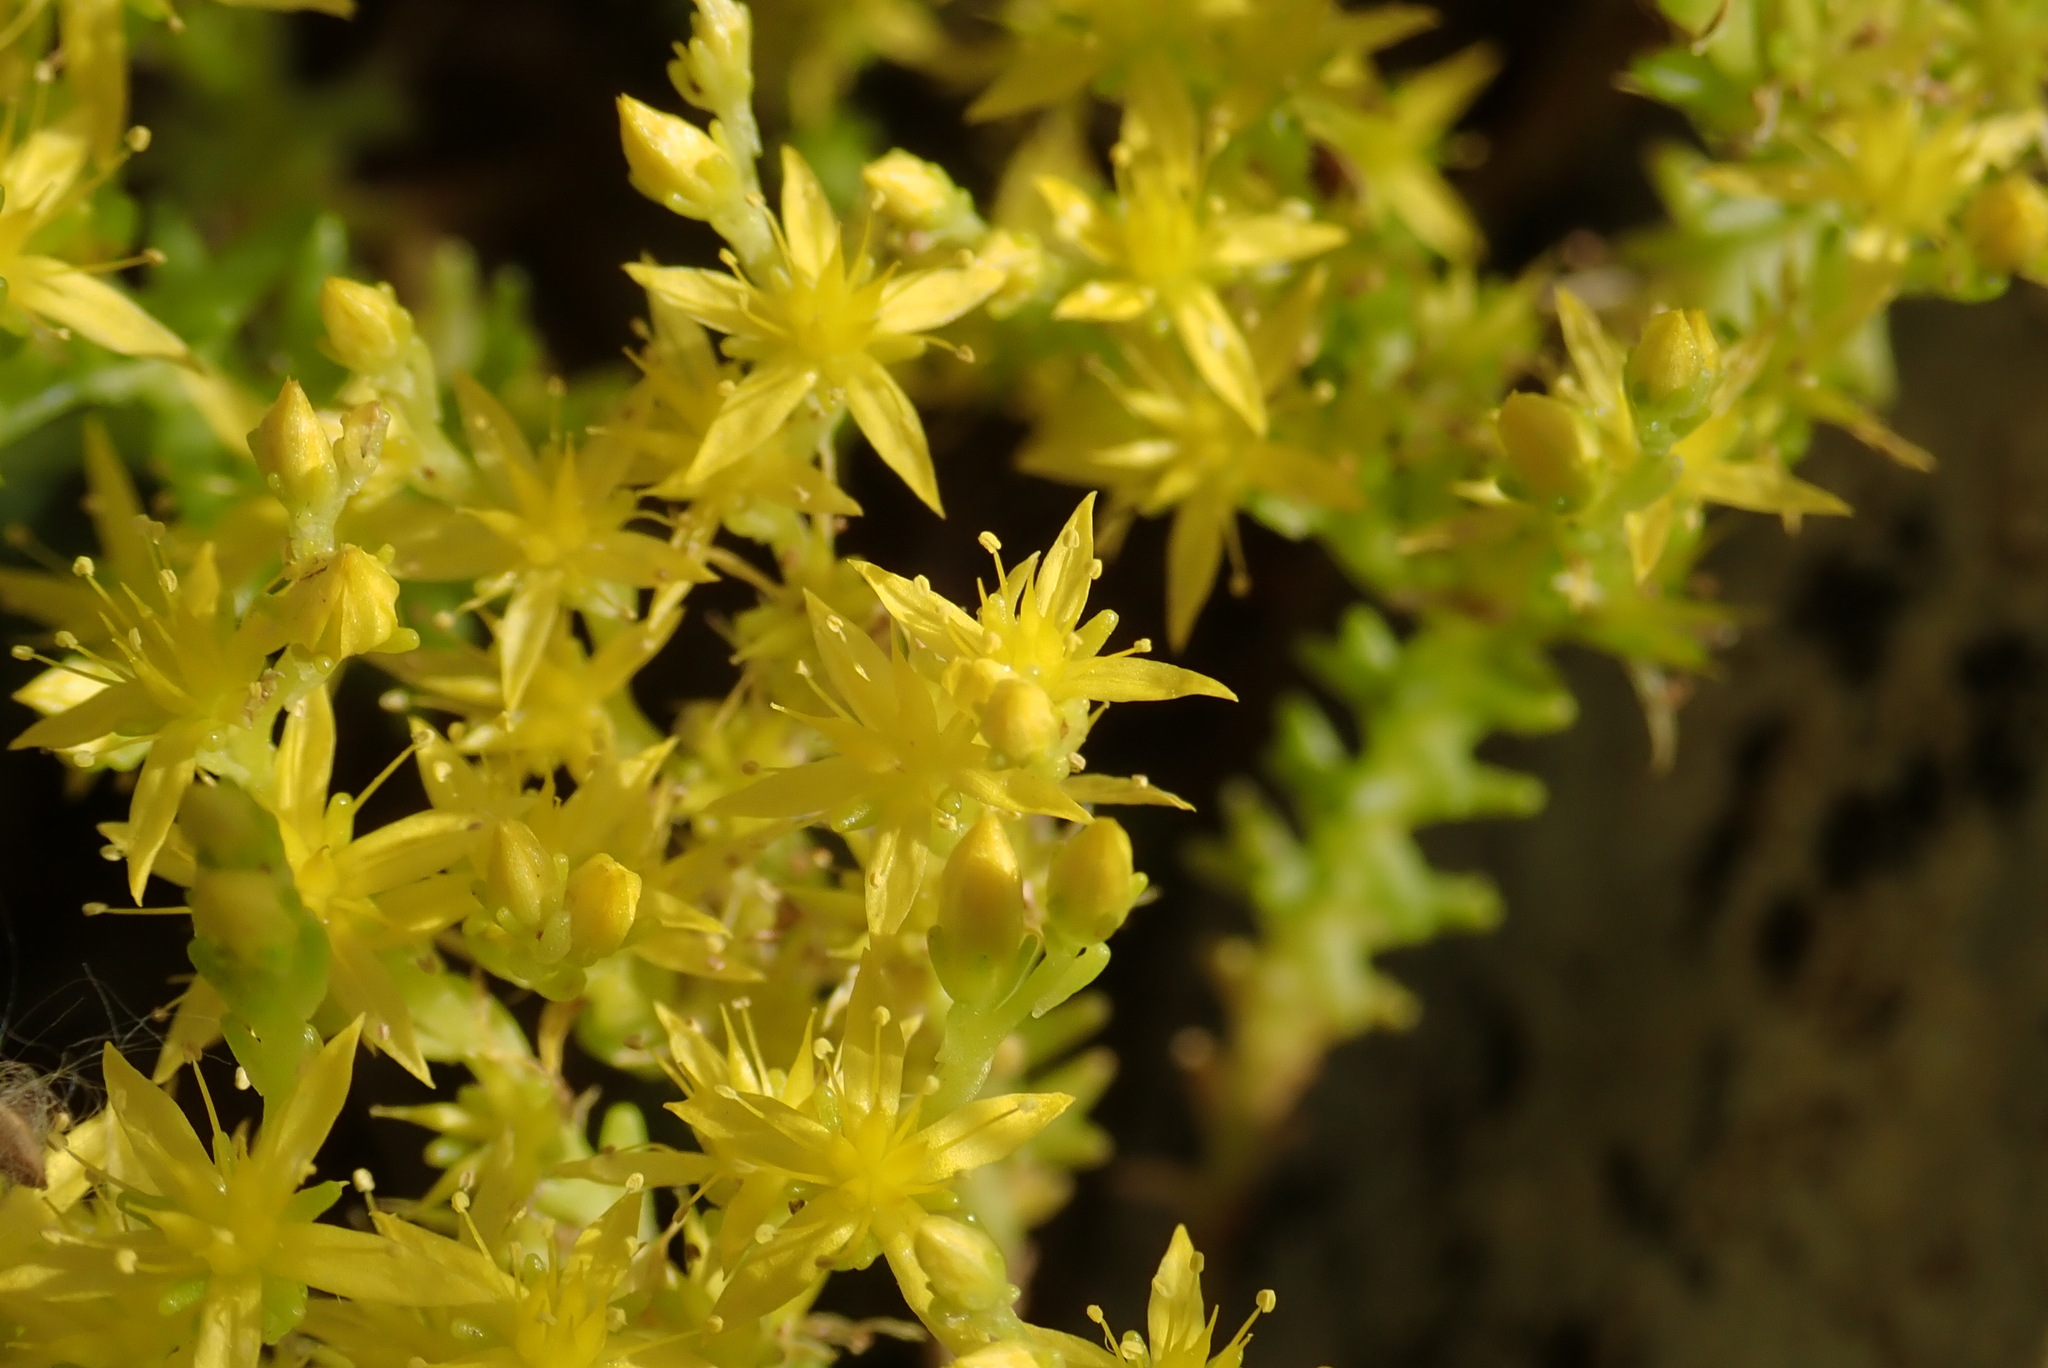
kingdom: Plantae
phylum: Tracheophyta
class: Magnoliopsida
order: Saxifragales
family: Crassulaceae
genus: Sedum
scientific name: Sedum sexangulare
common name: Tasteless stonecrop
